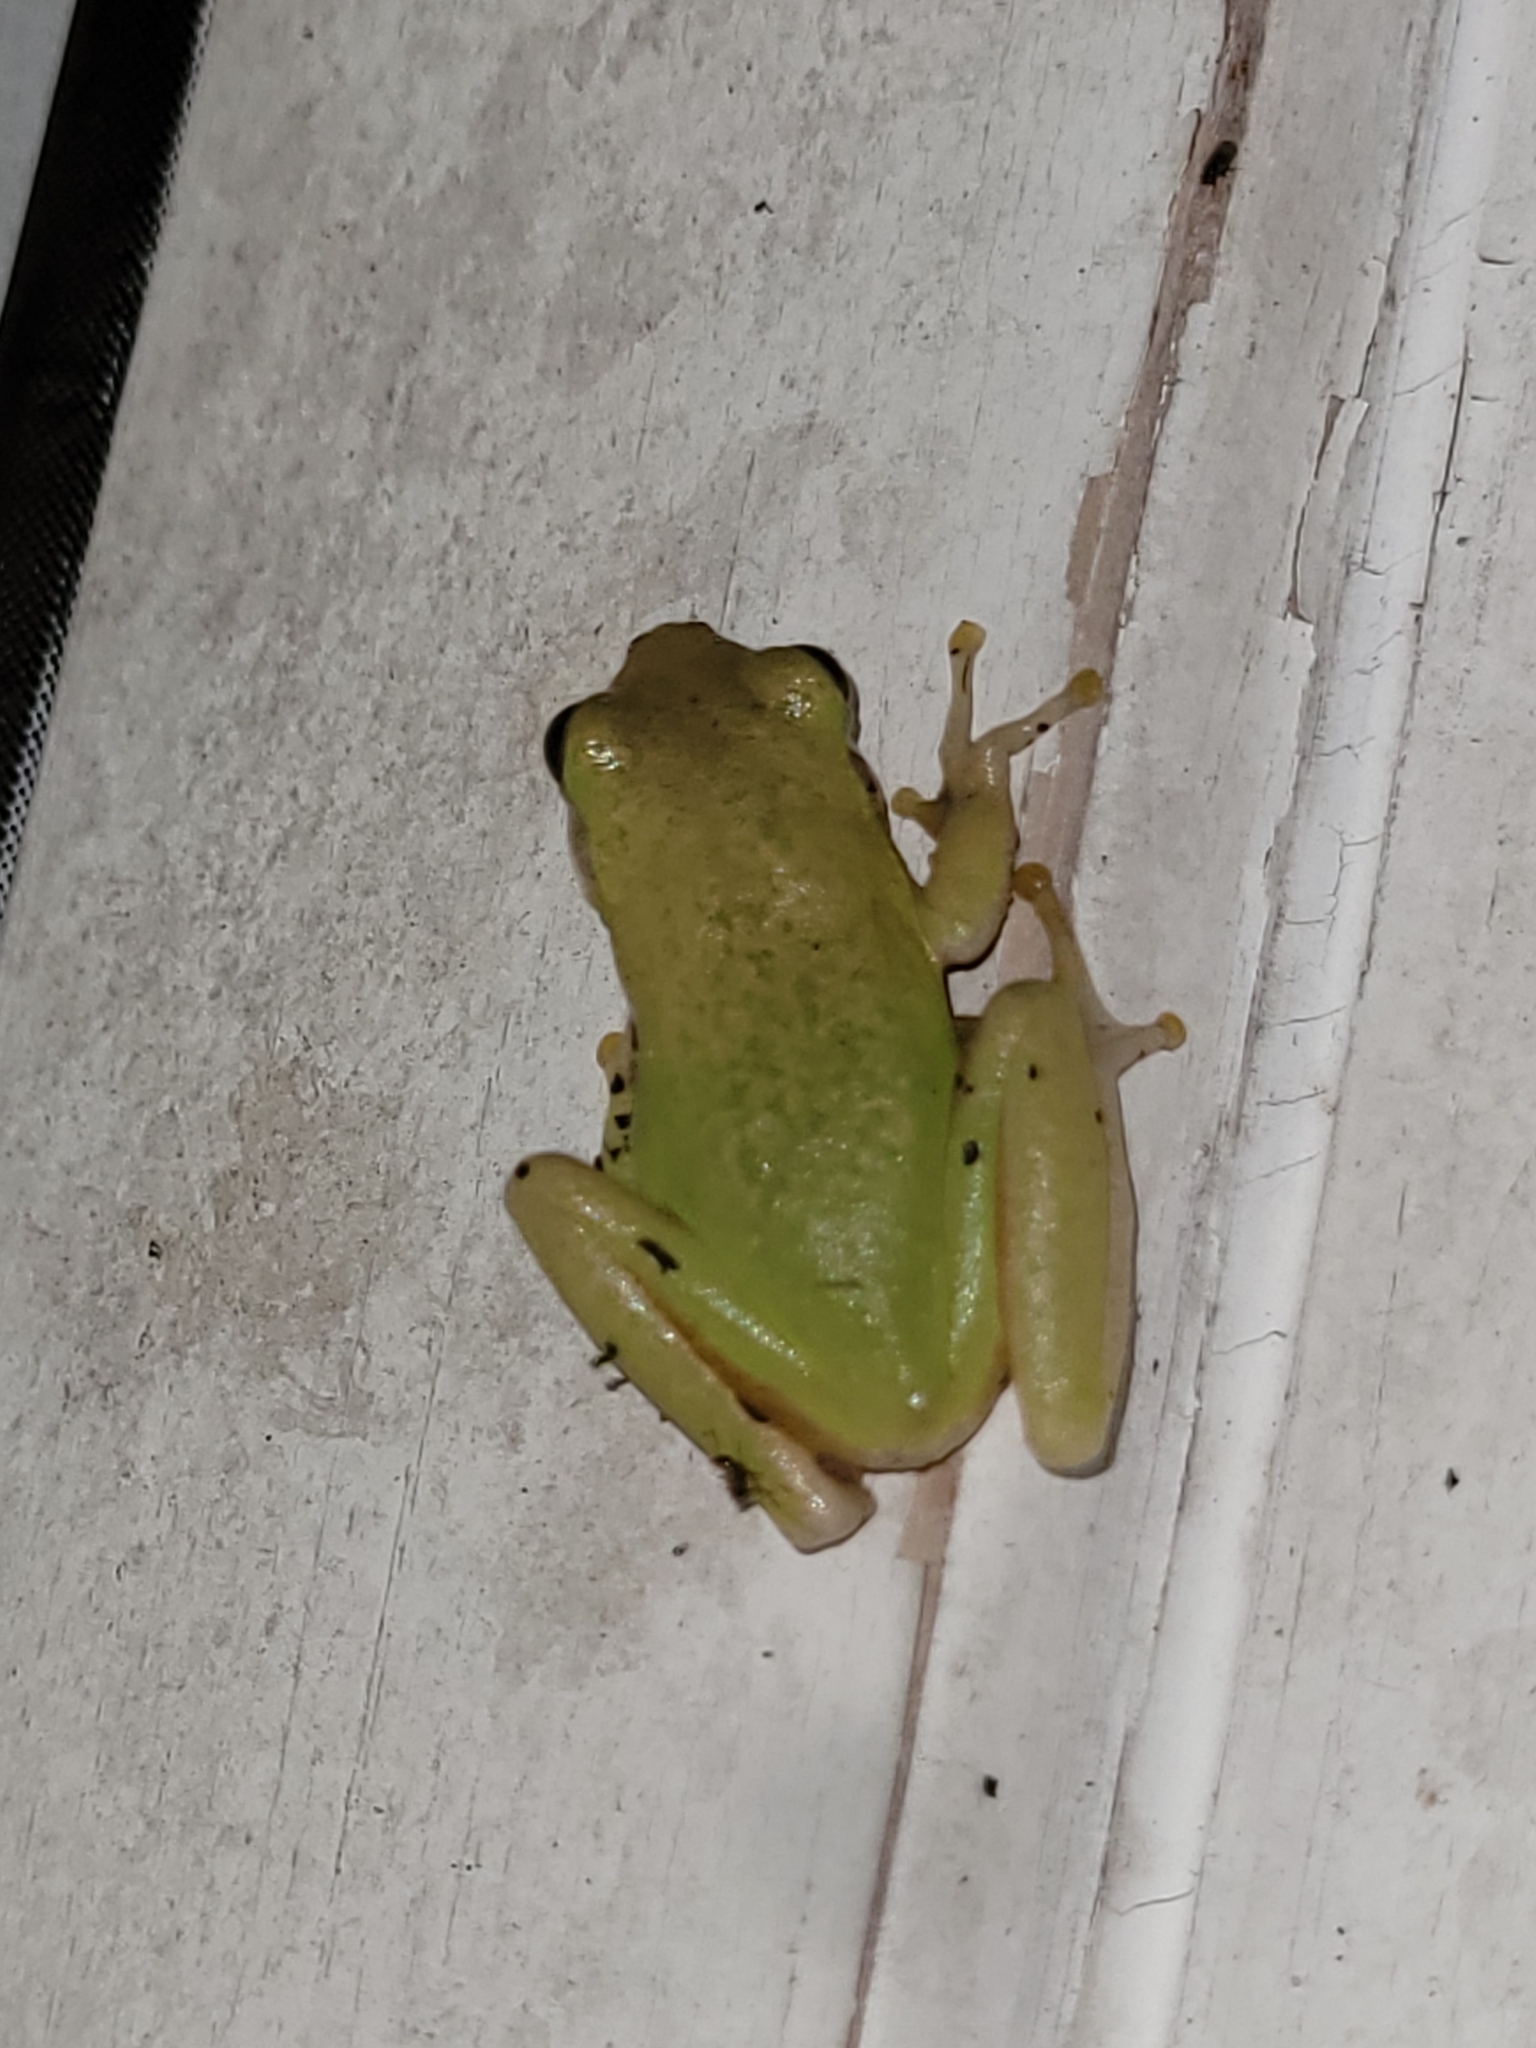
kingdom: Animalia
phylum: Chordata
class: Amphibia
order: Anura
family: Hylidae
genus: Dryophytes
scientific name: Dryophytes squirellus
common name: Squirrel treefrog
